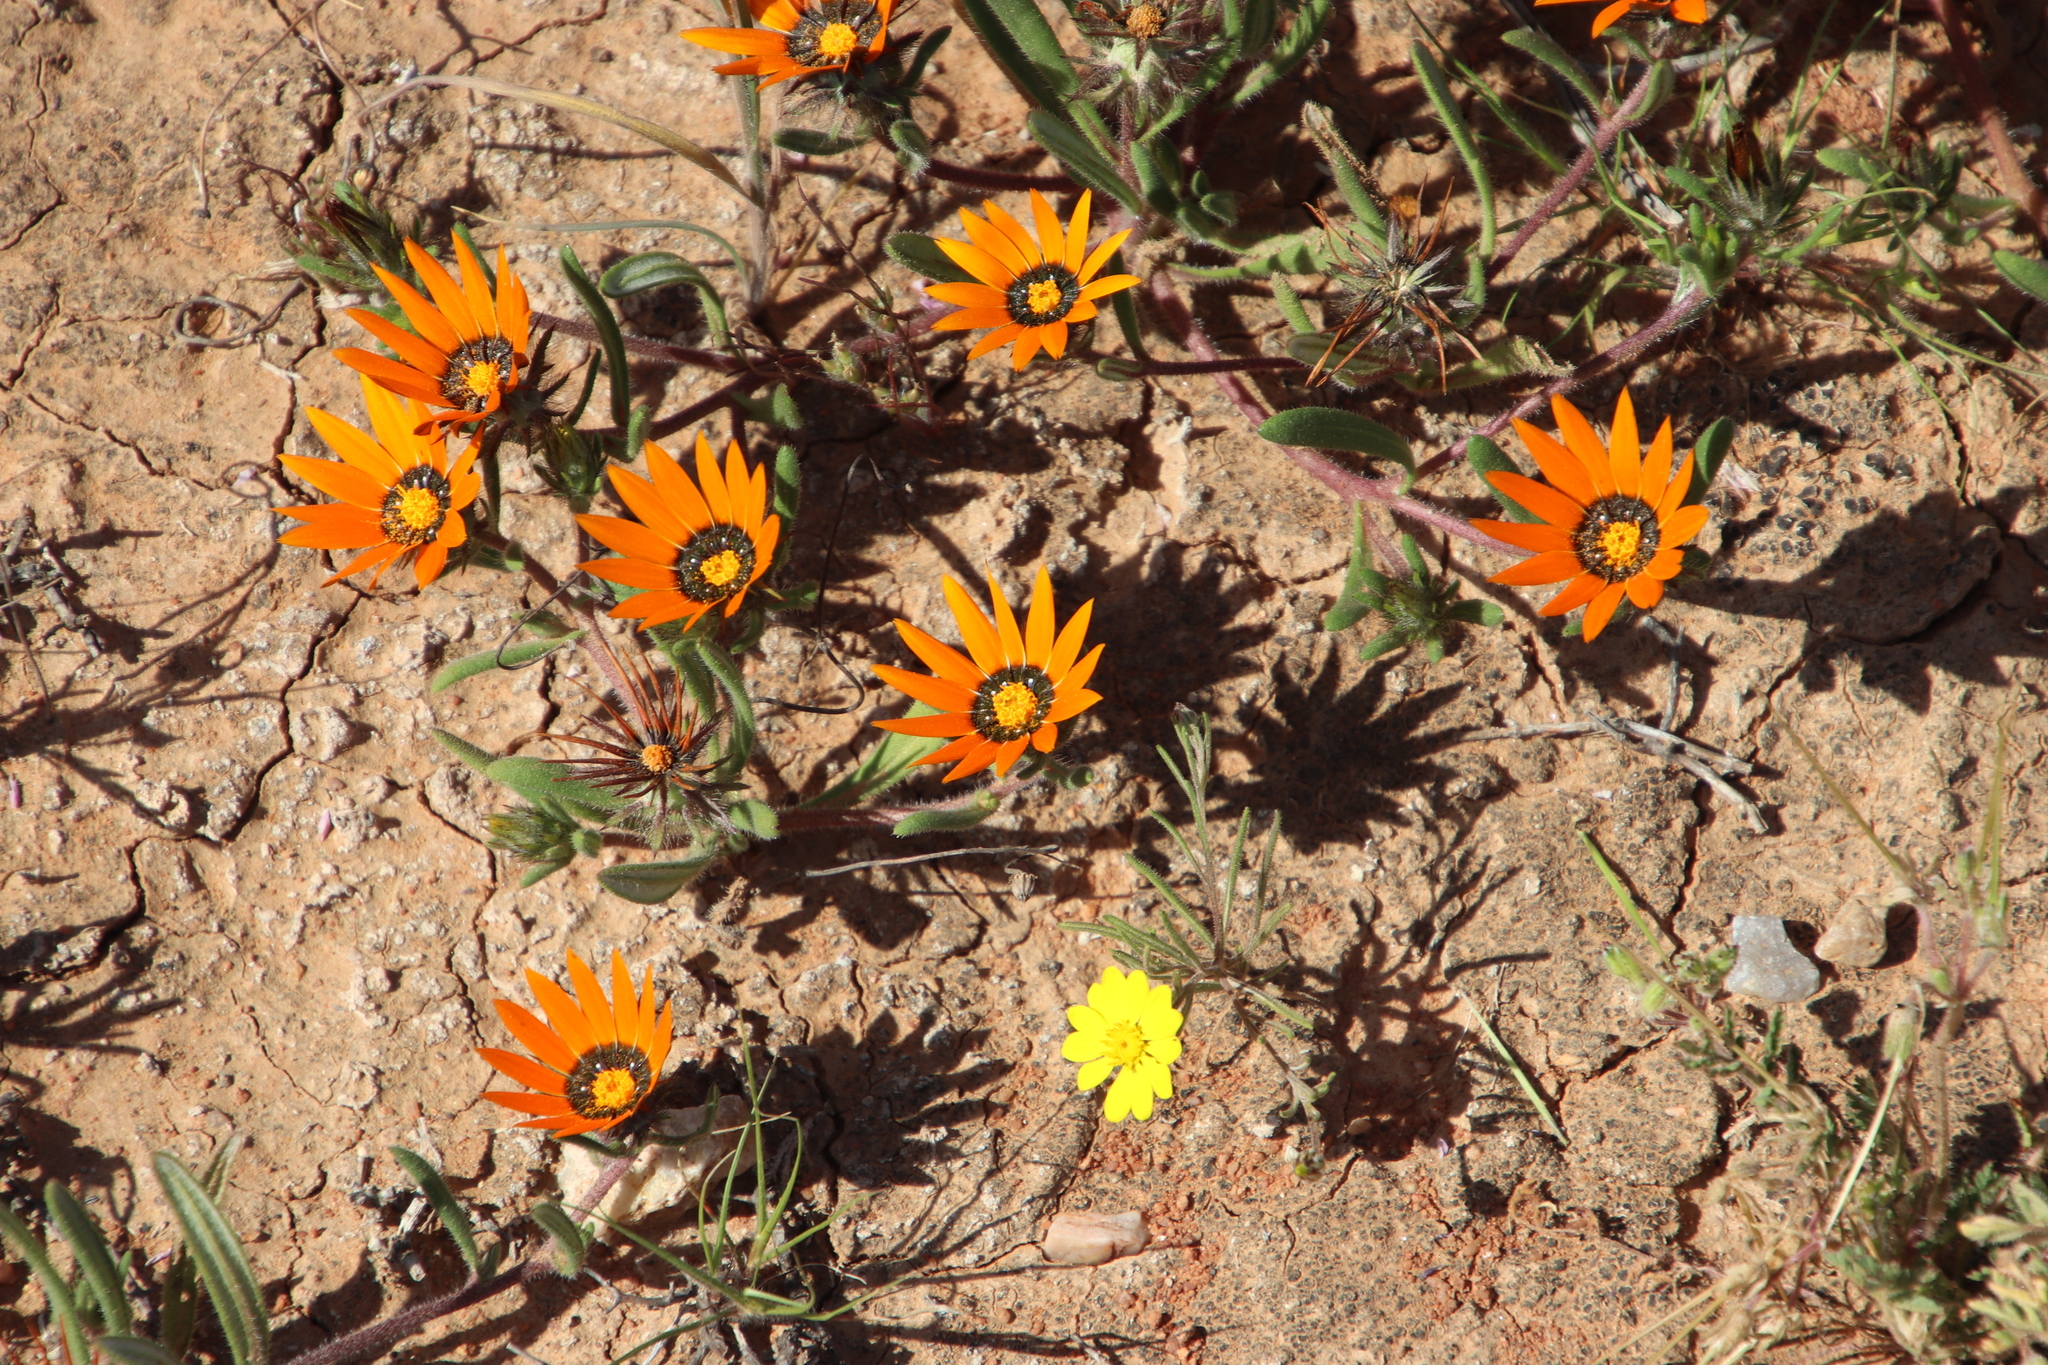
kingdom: Plantae
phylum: Tracheophyta
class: Magnoliopsida
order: Asterales
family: Asteraceae
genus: Gorteria
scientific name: Gorteria diffusa
